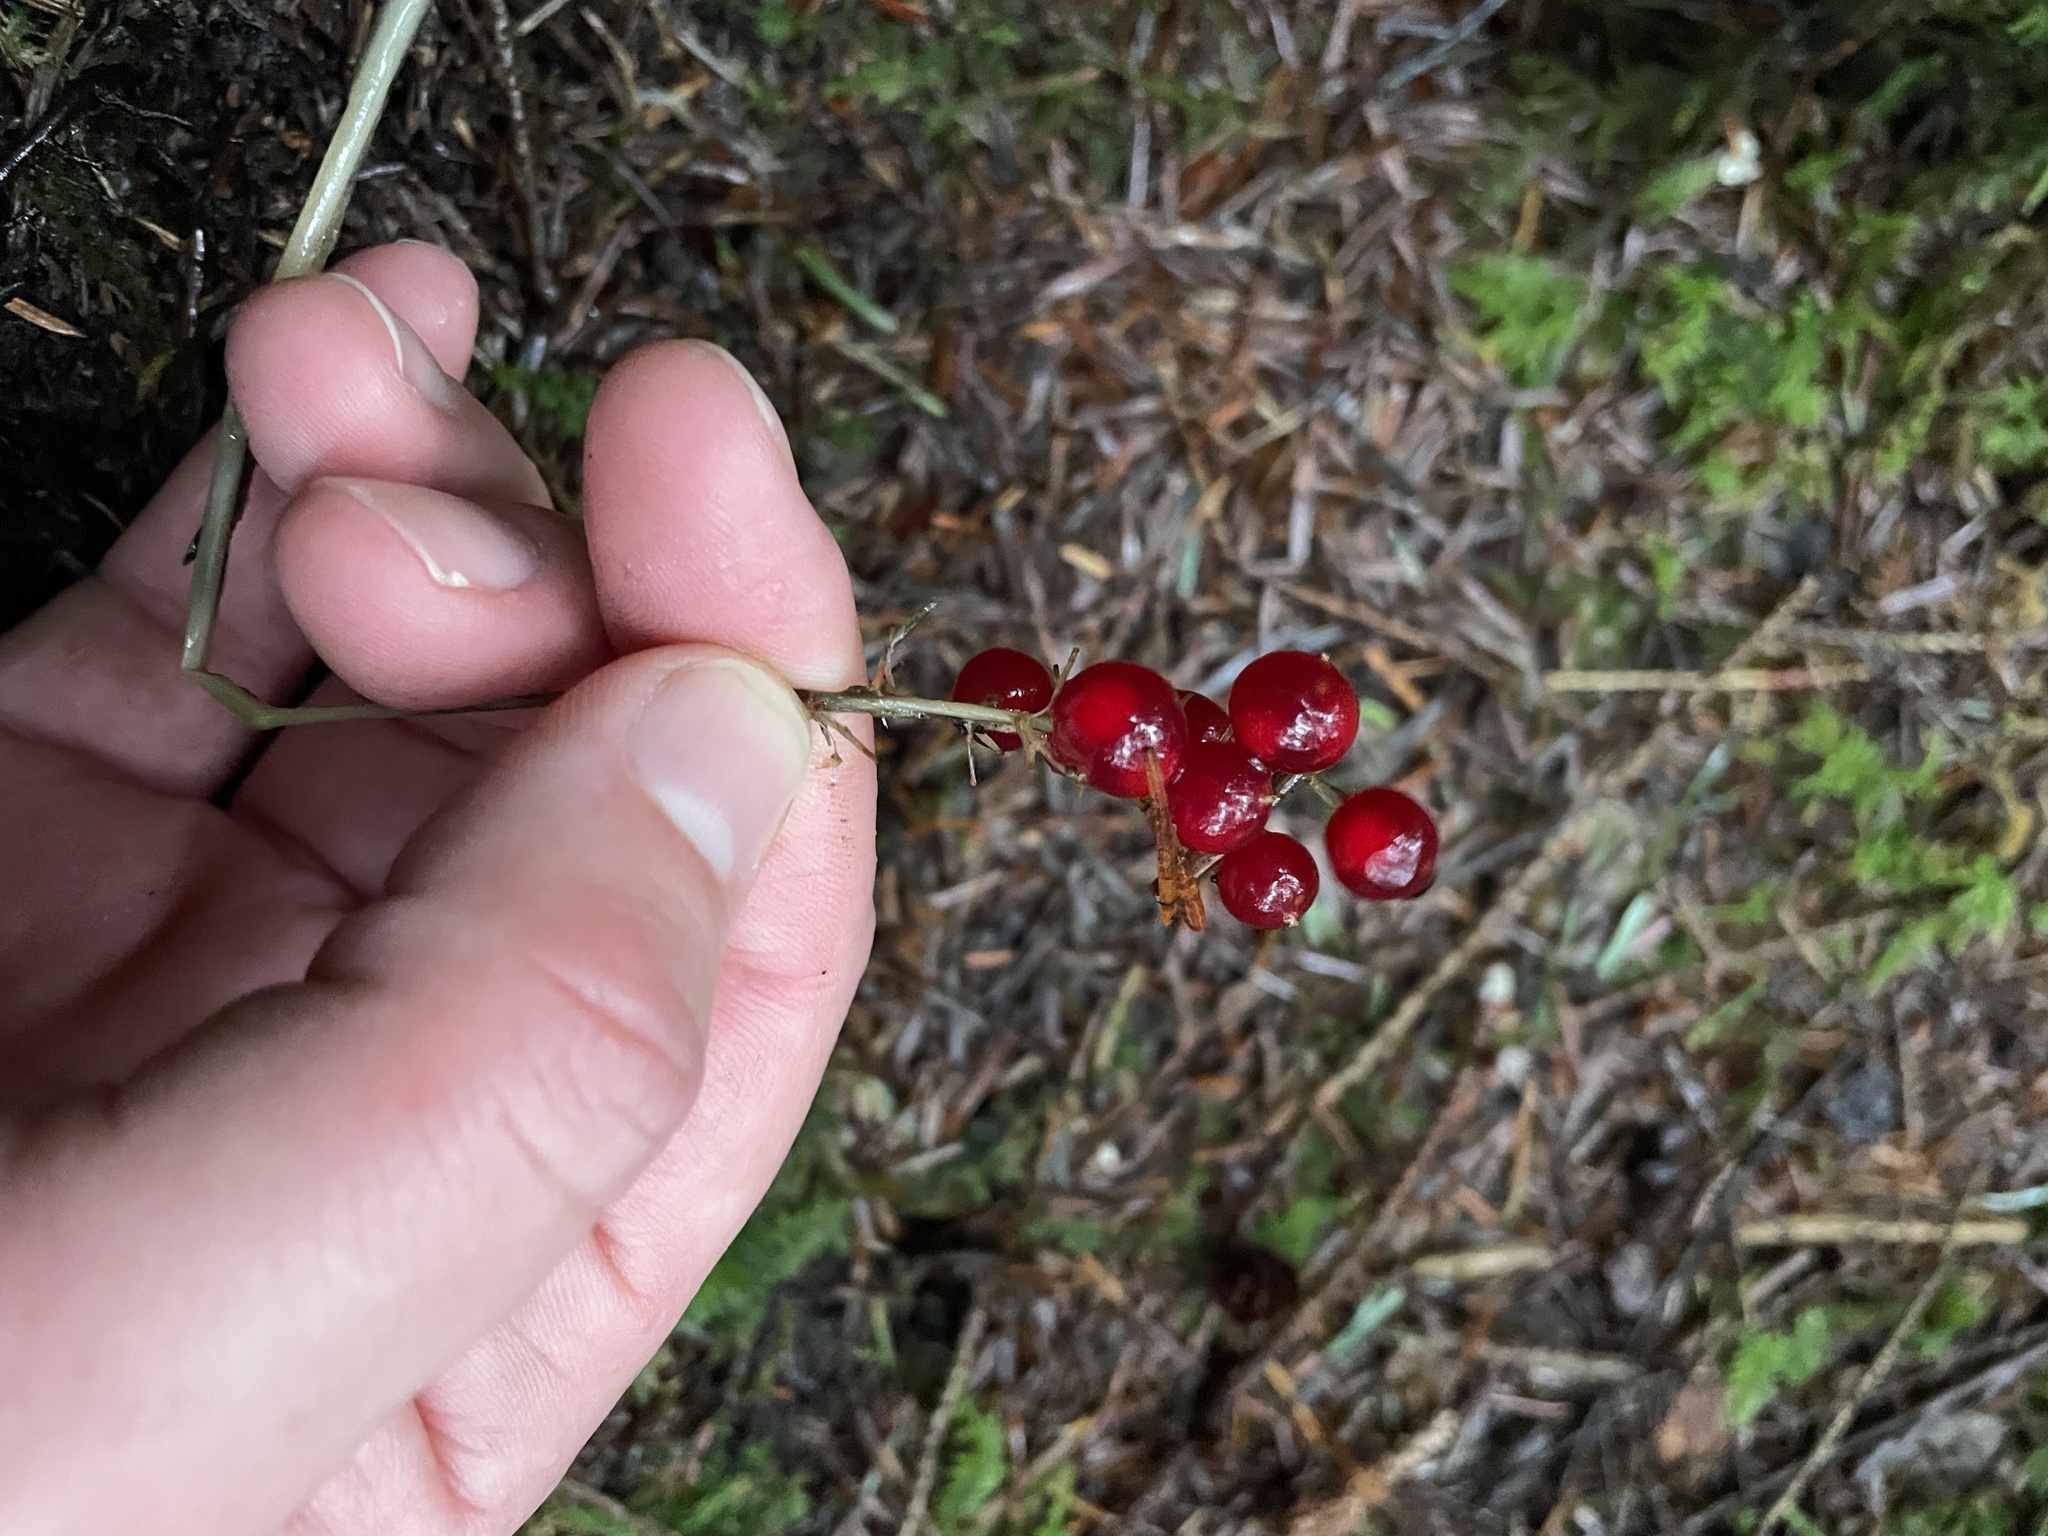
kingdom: Plantae
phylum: Tracheophyta
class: Liliopsida
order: Asparagales
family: Asparagaceae
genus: Maianthemum
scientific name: Maianthemum dilatatum
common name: False lily-of-the-valley
